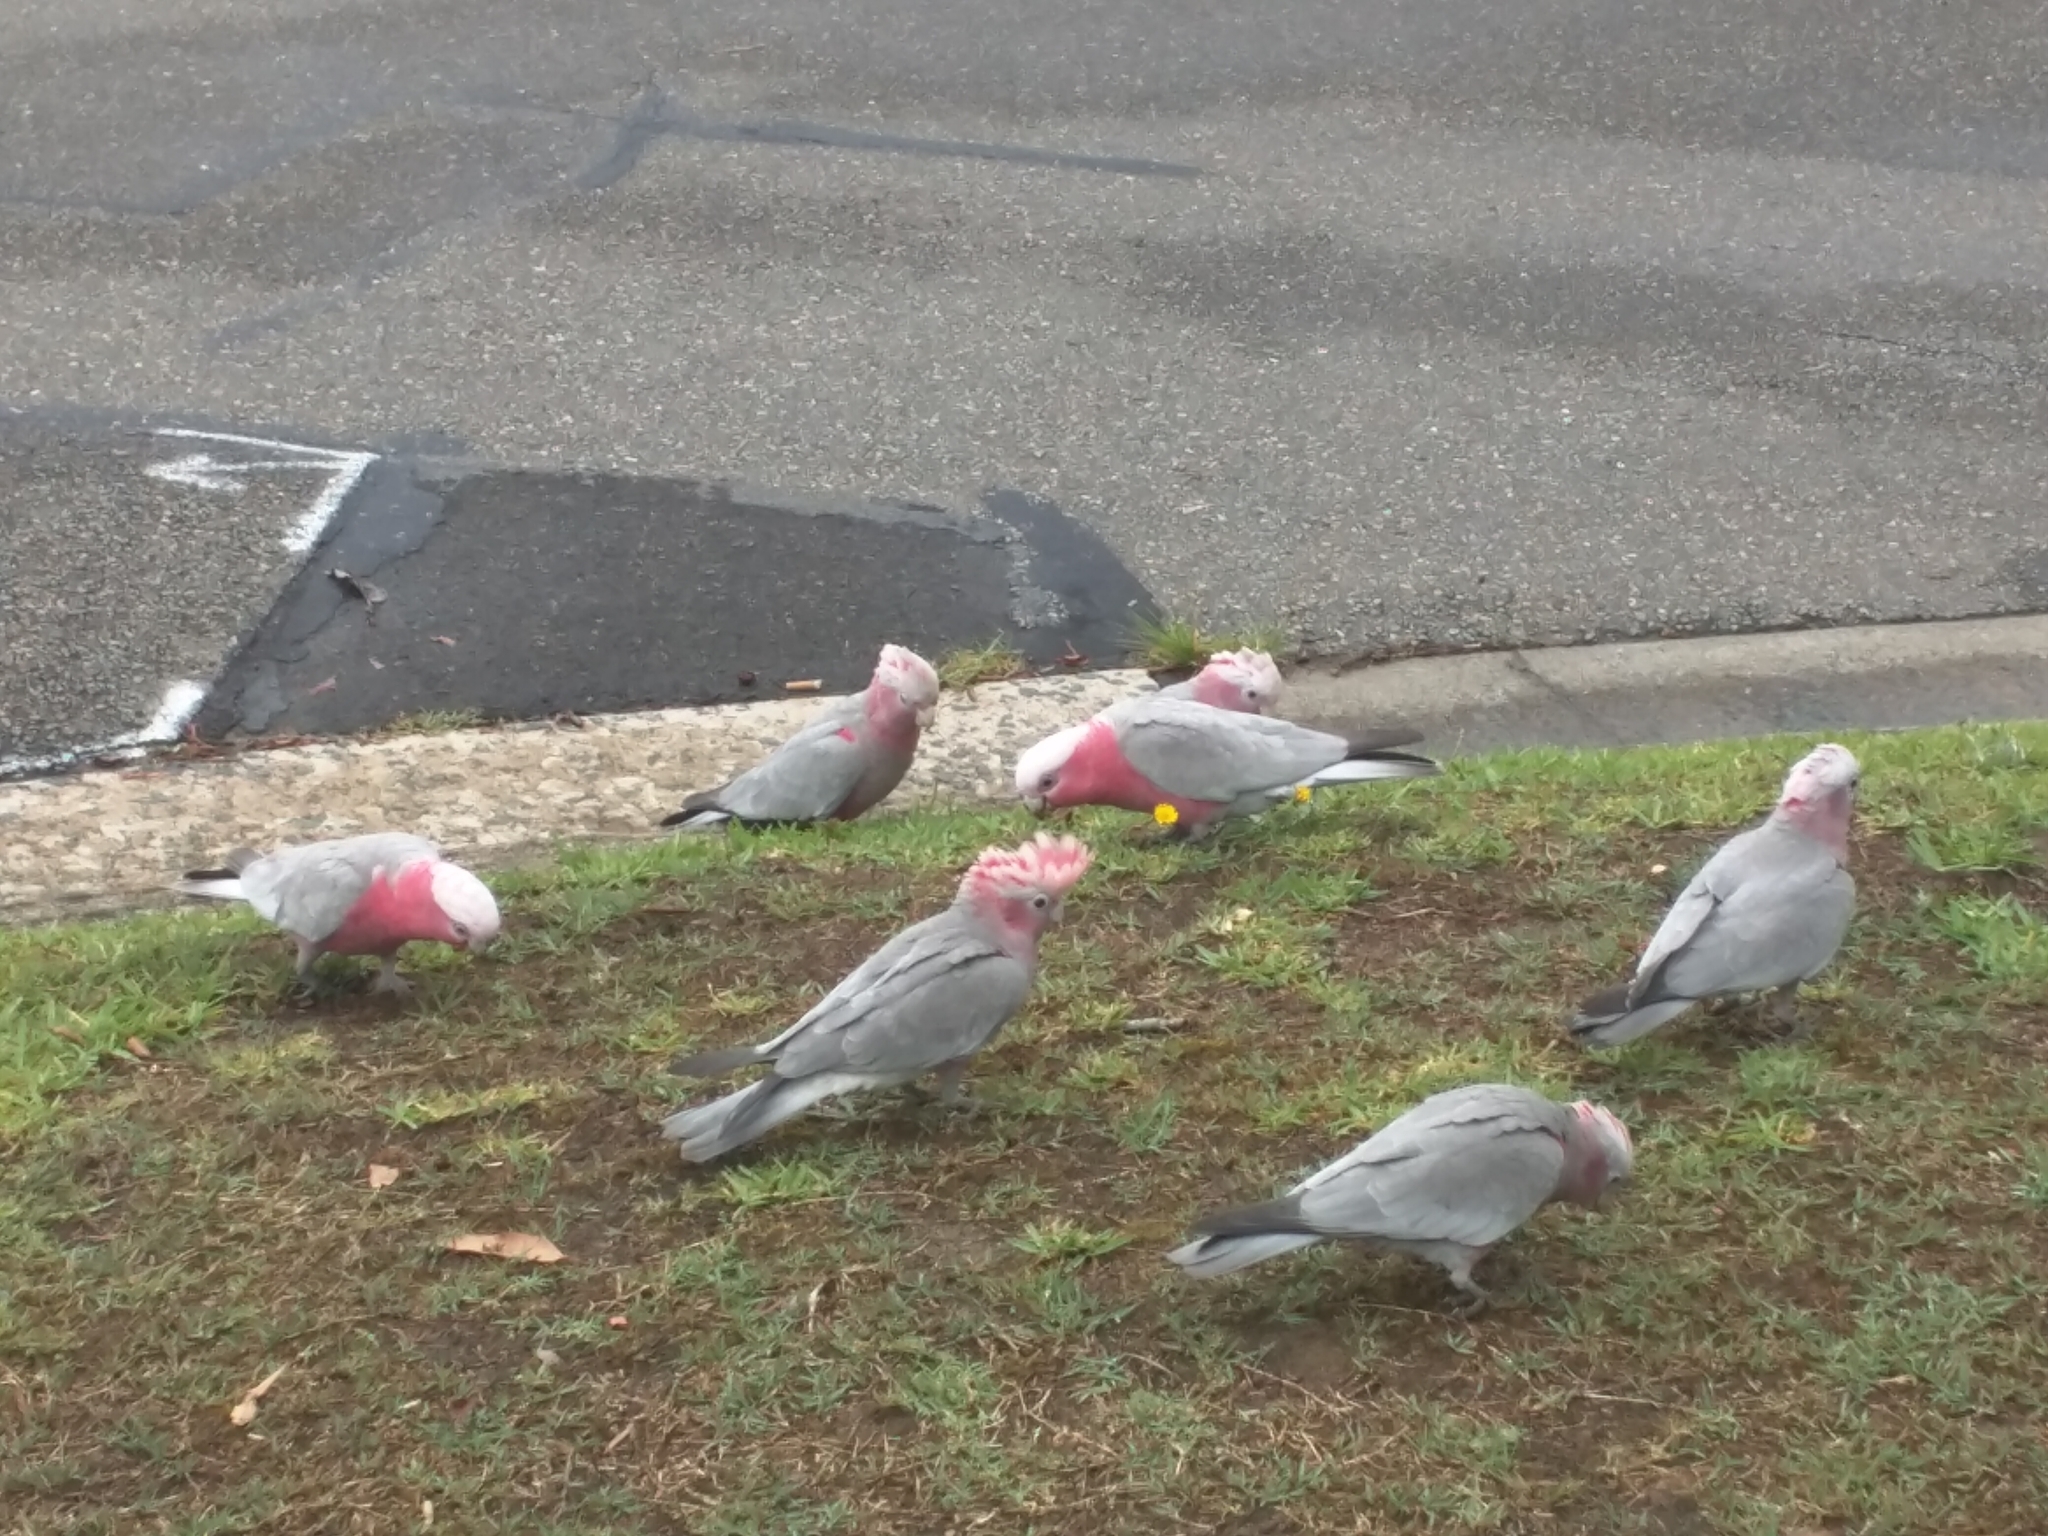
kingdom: Animalia
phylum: Chordata
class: Aves
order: Psittaciformes
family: Psittacidae
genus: Eolophus
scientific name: Eolophus roseicapilla
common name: Galah
